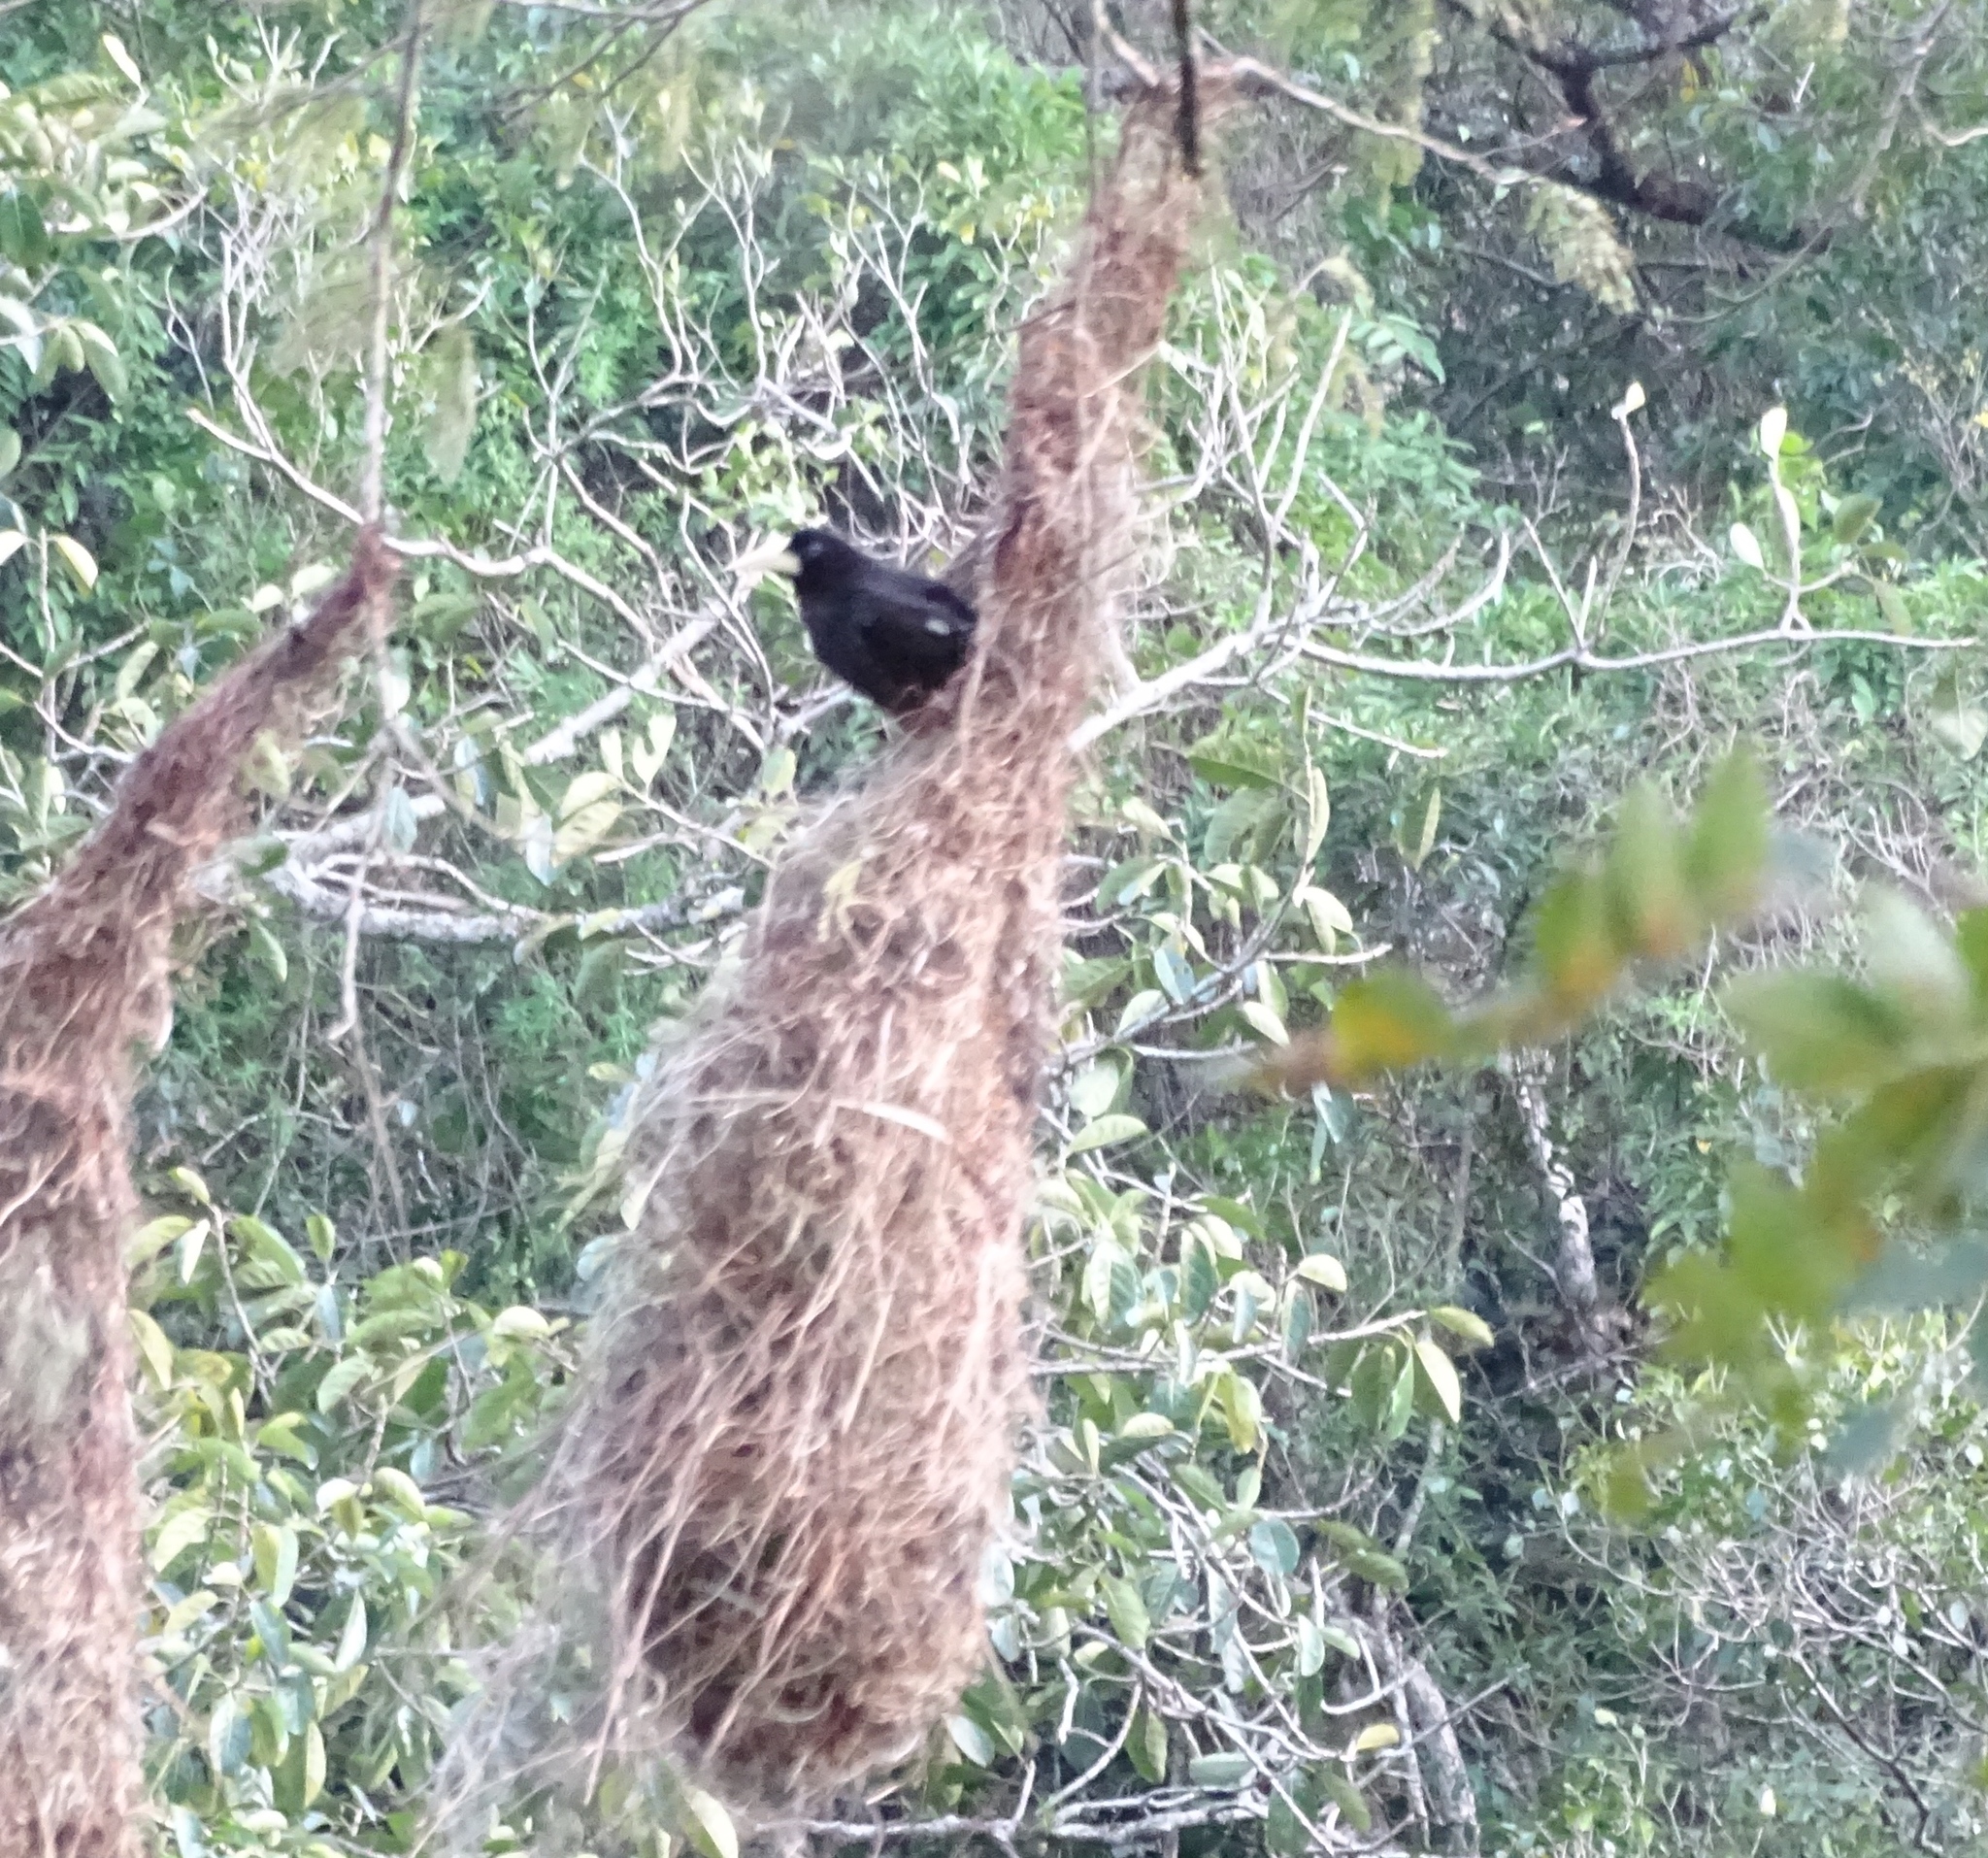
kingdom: Animalia
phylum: Chordata
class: Aves
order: Passeriformes
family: Icteridae
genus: Psarocolius
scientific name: Psarocolius decumanus
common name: Crested oropendola
